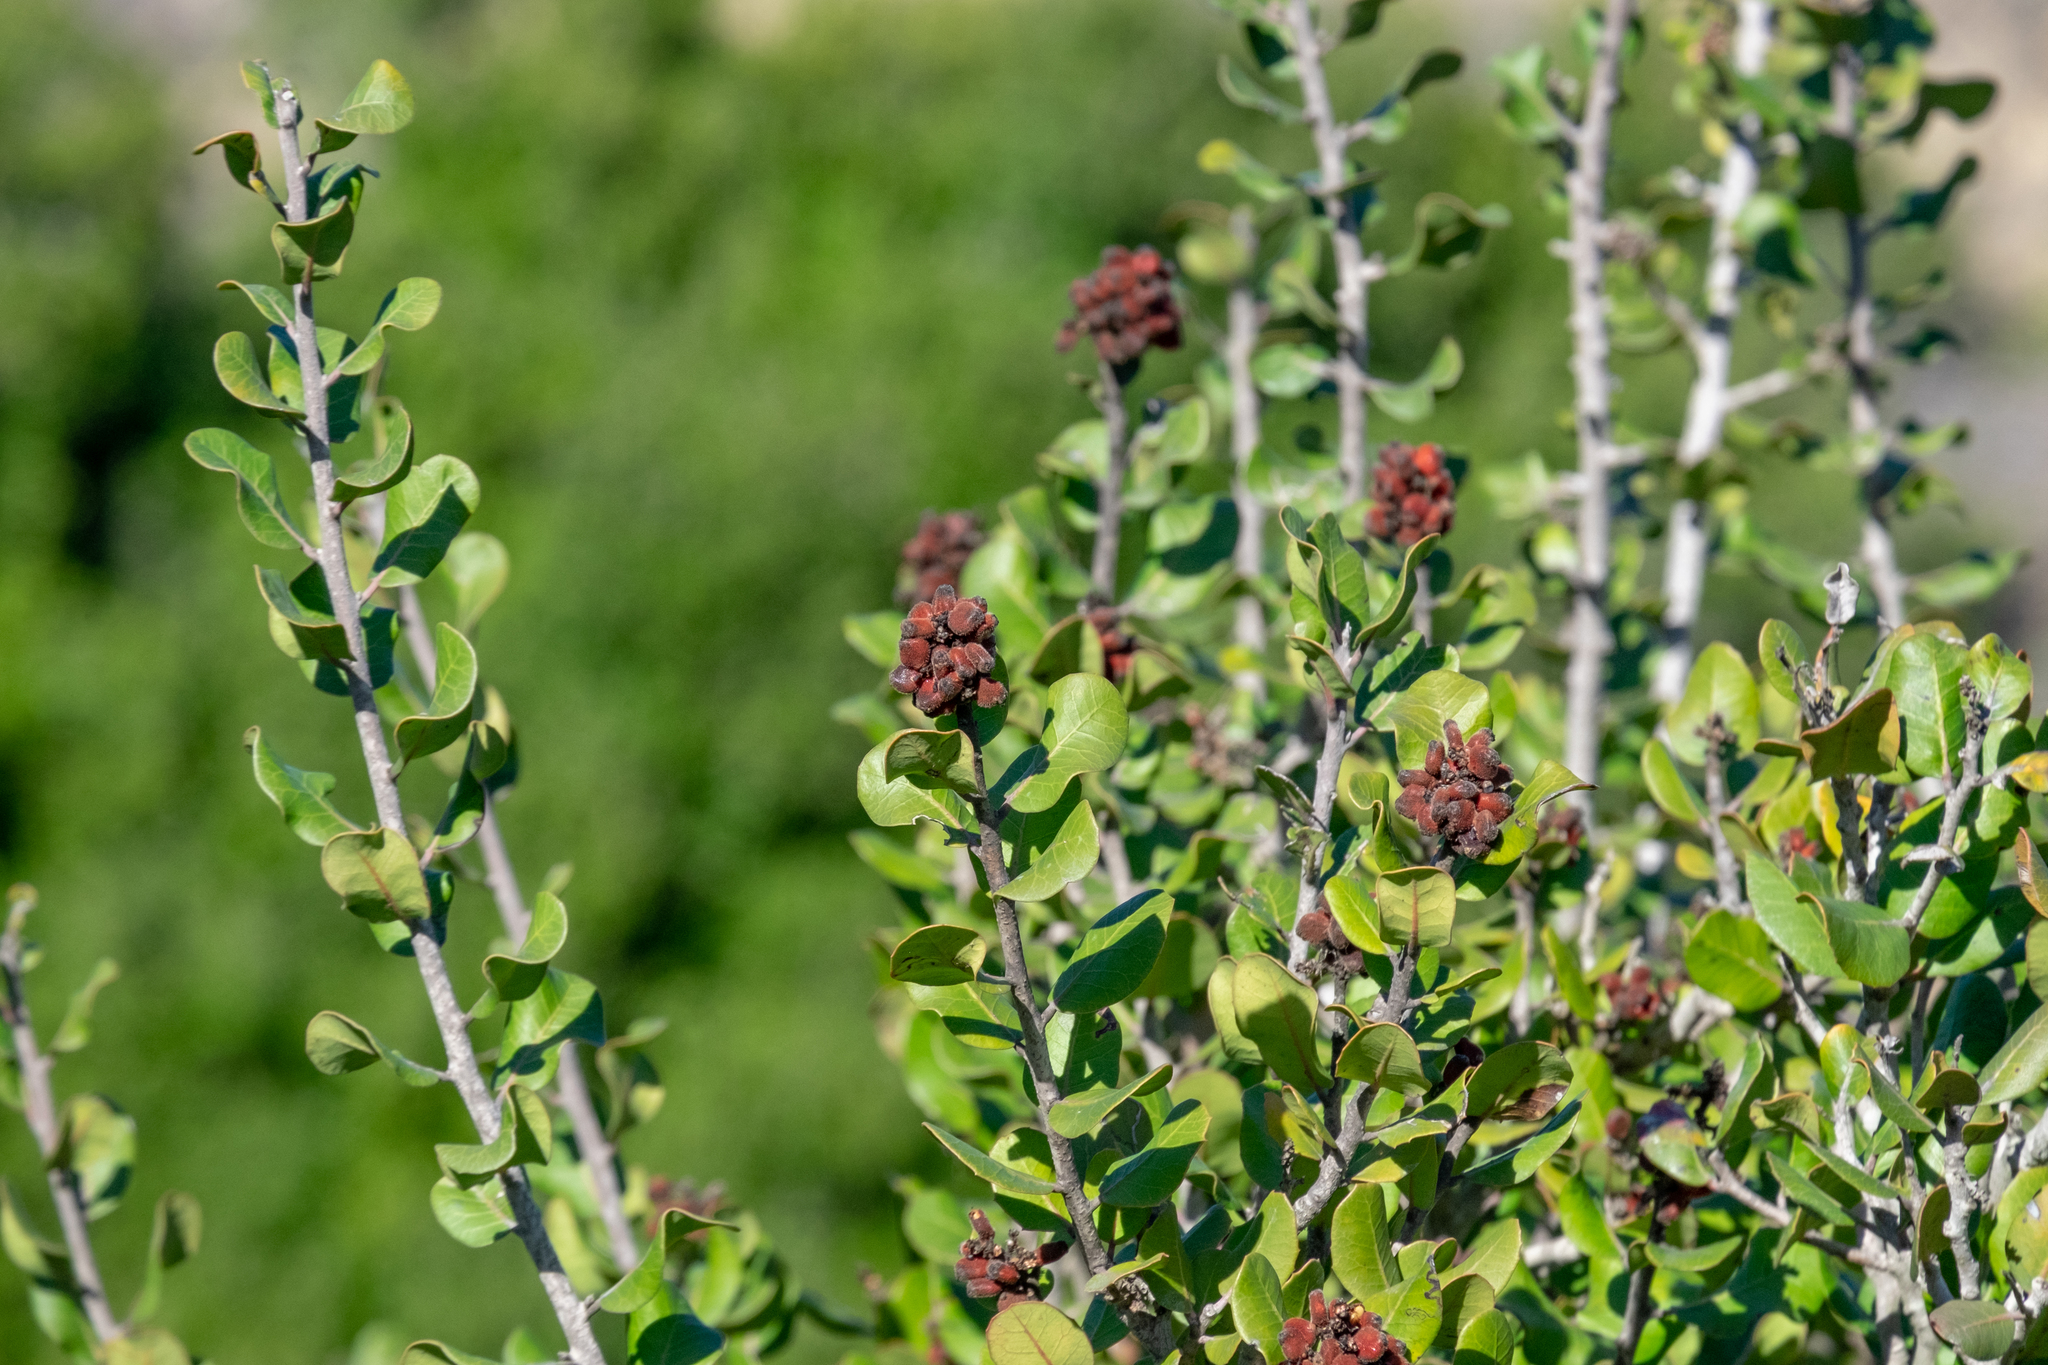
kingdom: Plantae
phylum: Tracheophyta
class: Magnoliopsida
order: Sapindales
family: Anacardiaceae
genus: Rhus
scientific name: Rhus integrifolia
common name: Lemonade sumac
